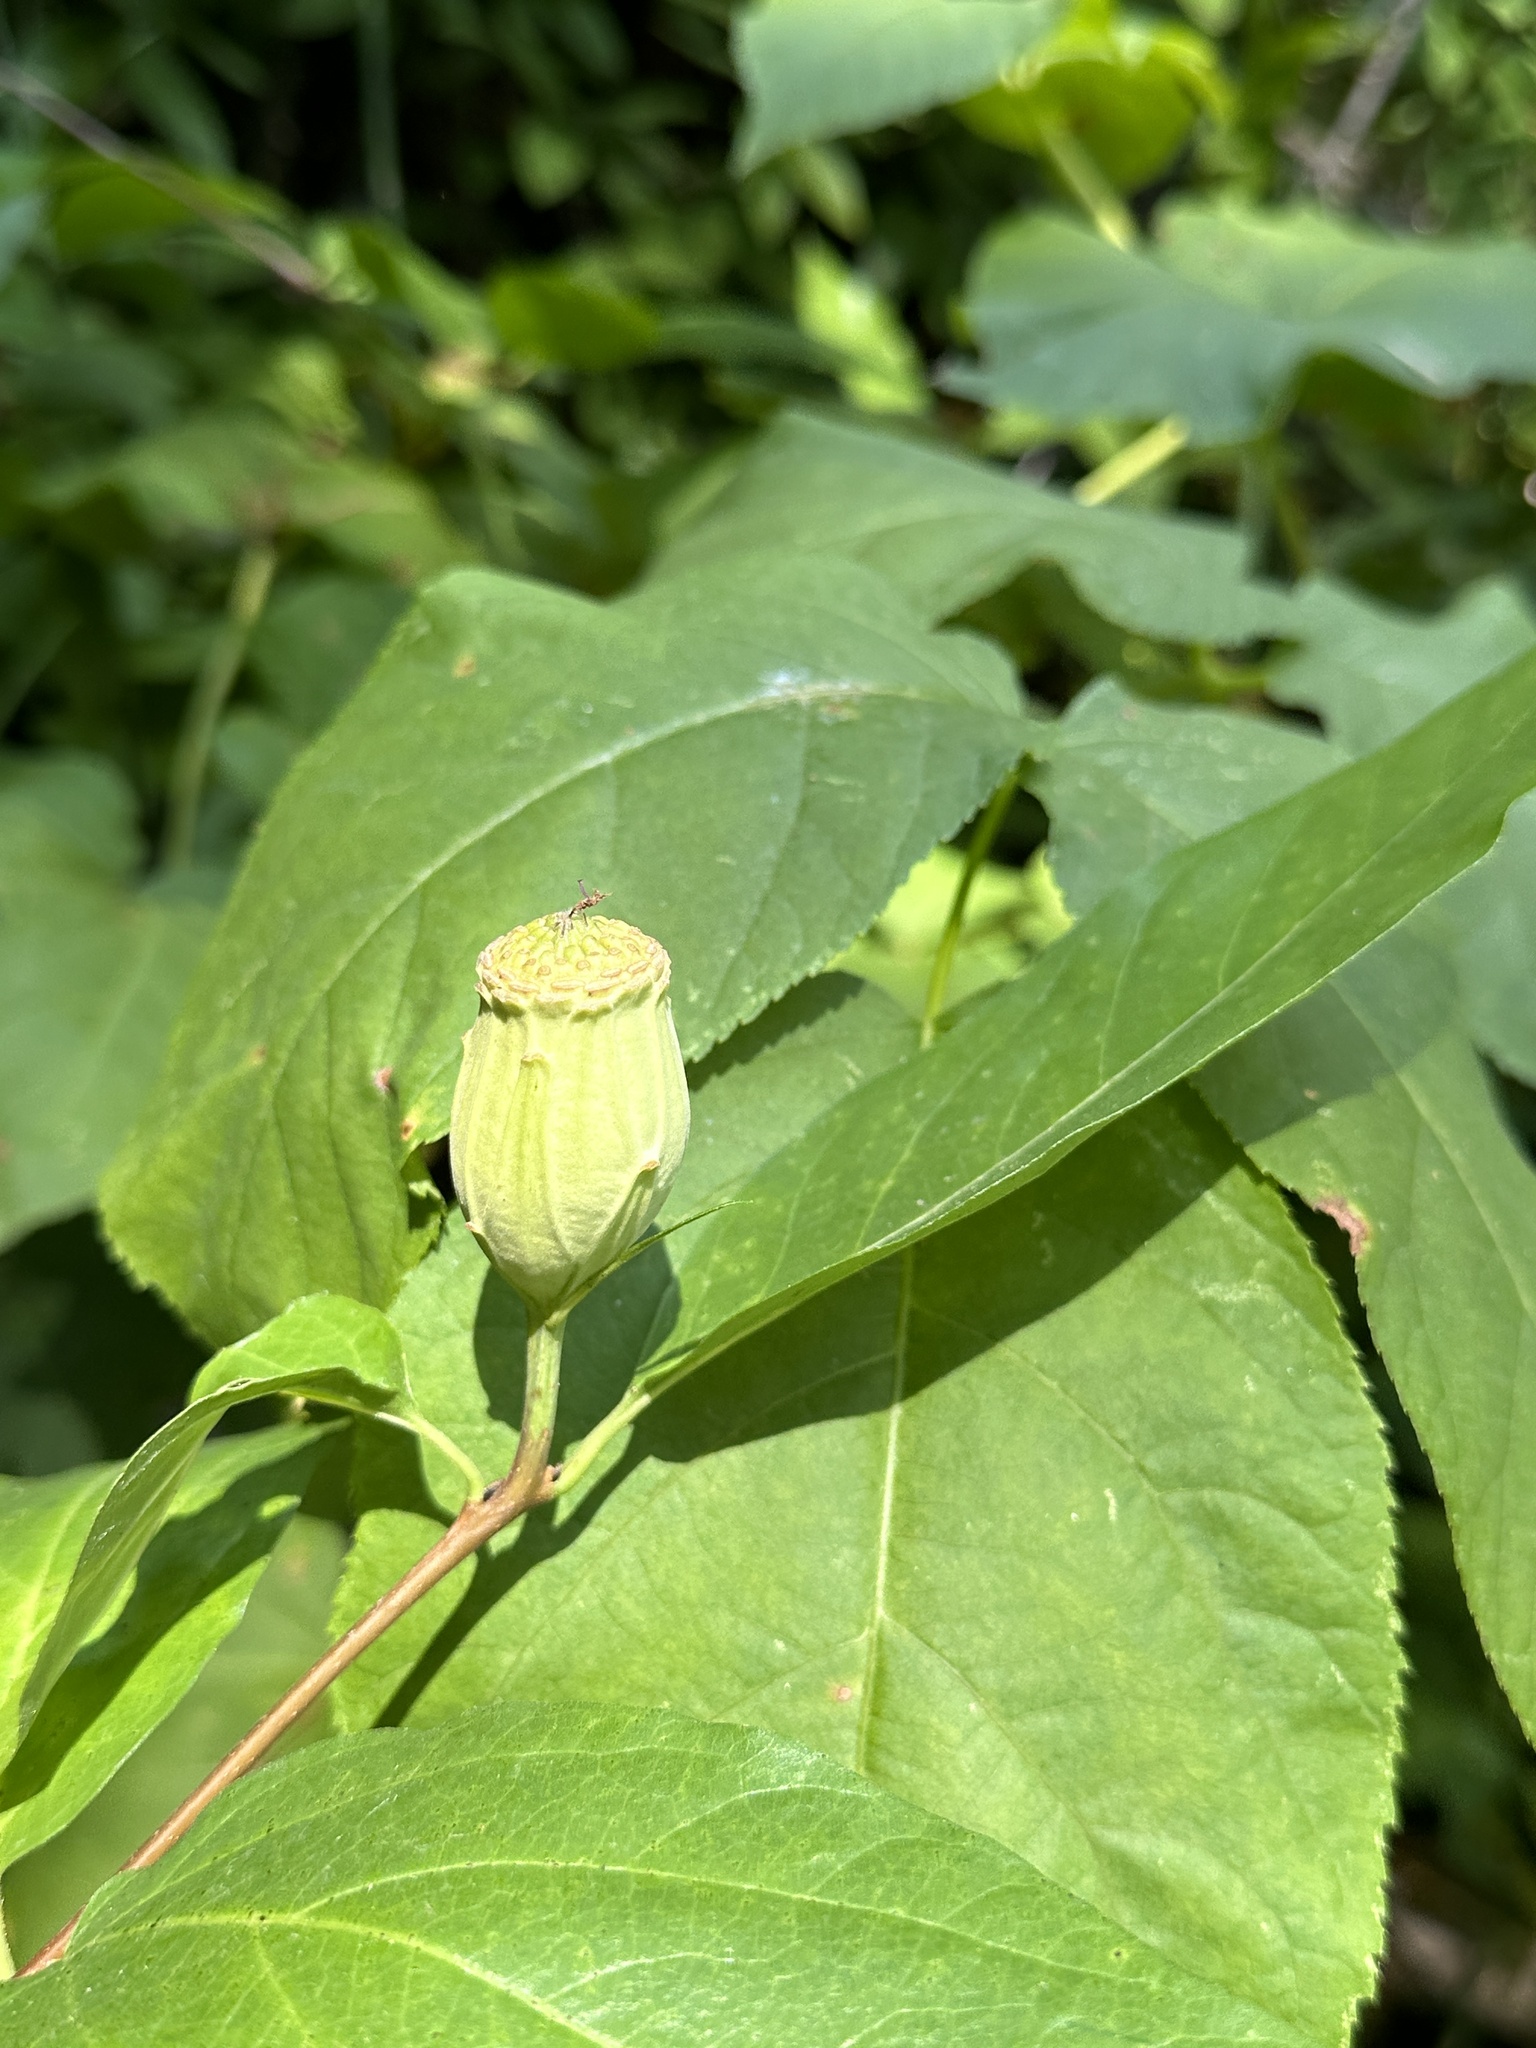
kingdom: Plantae
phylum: Tracheophyta
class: Magnoliopsida
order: Laurales
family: Calycanthaceae
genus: Calycanthus
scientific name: Calycanthus occidentalis
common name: California spicebush
